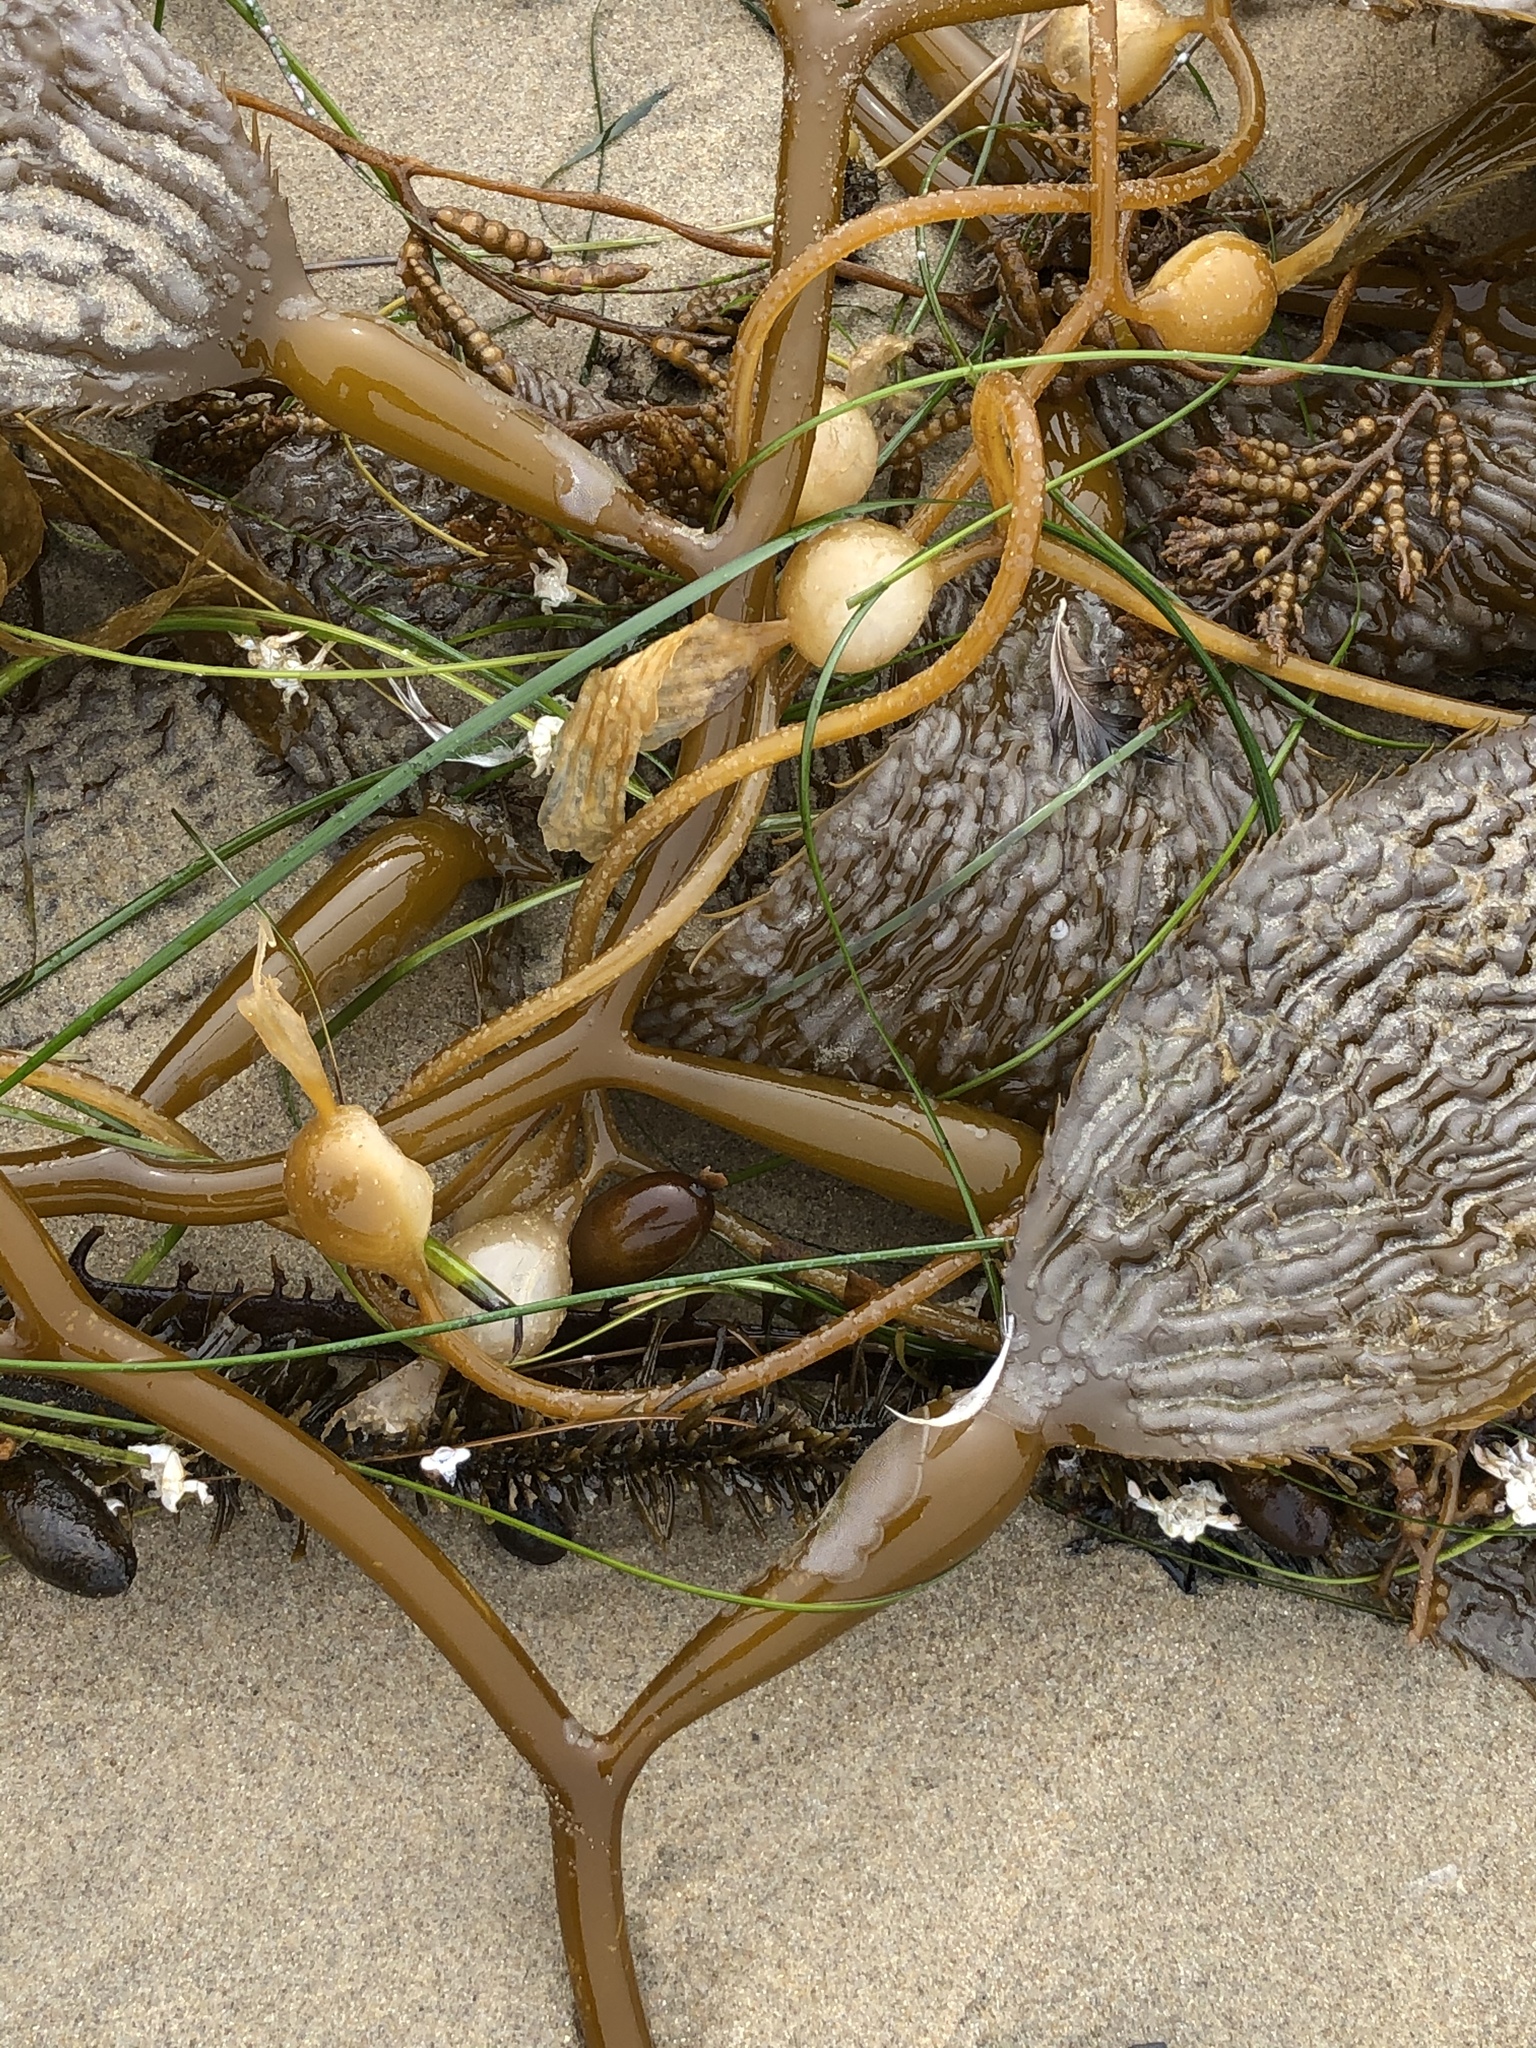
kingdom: Chromista
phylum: Ochrophyta
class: Phaeophyceae
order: Laminariales
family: Laminariaceae
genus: Macrocystis
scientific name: Macrocystis pyrifera
